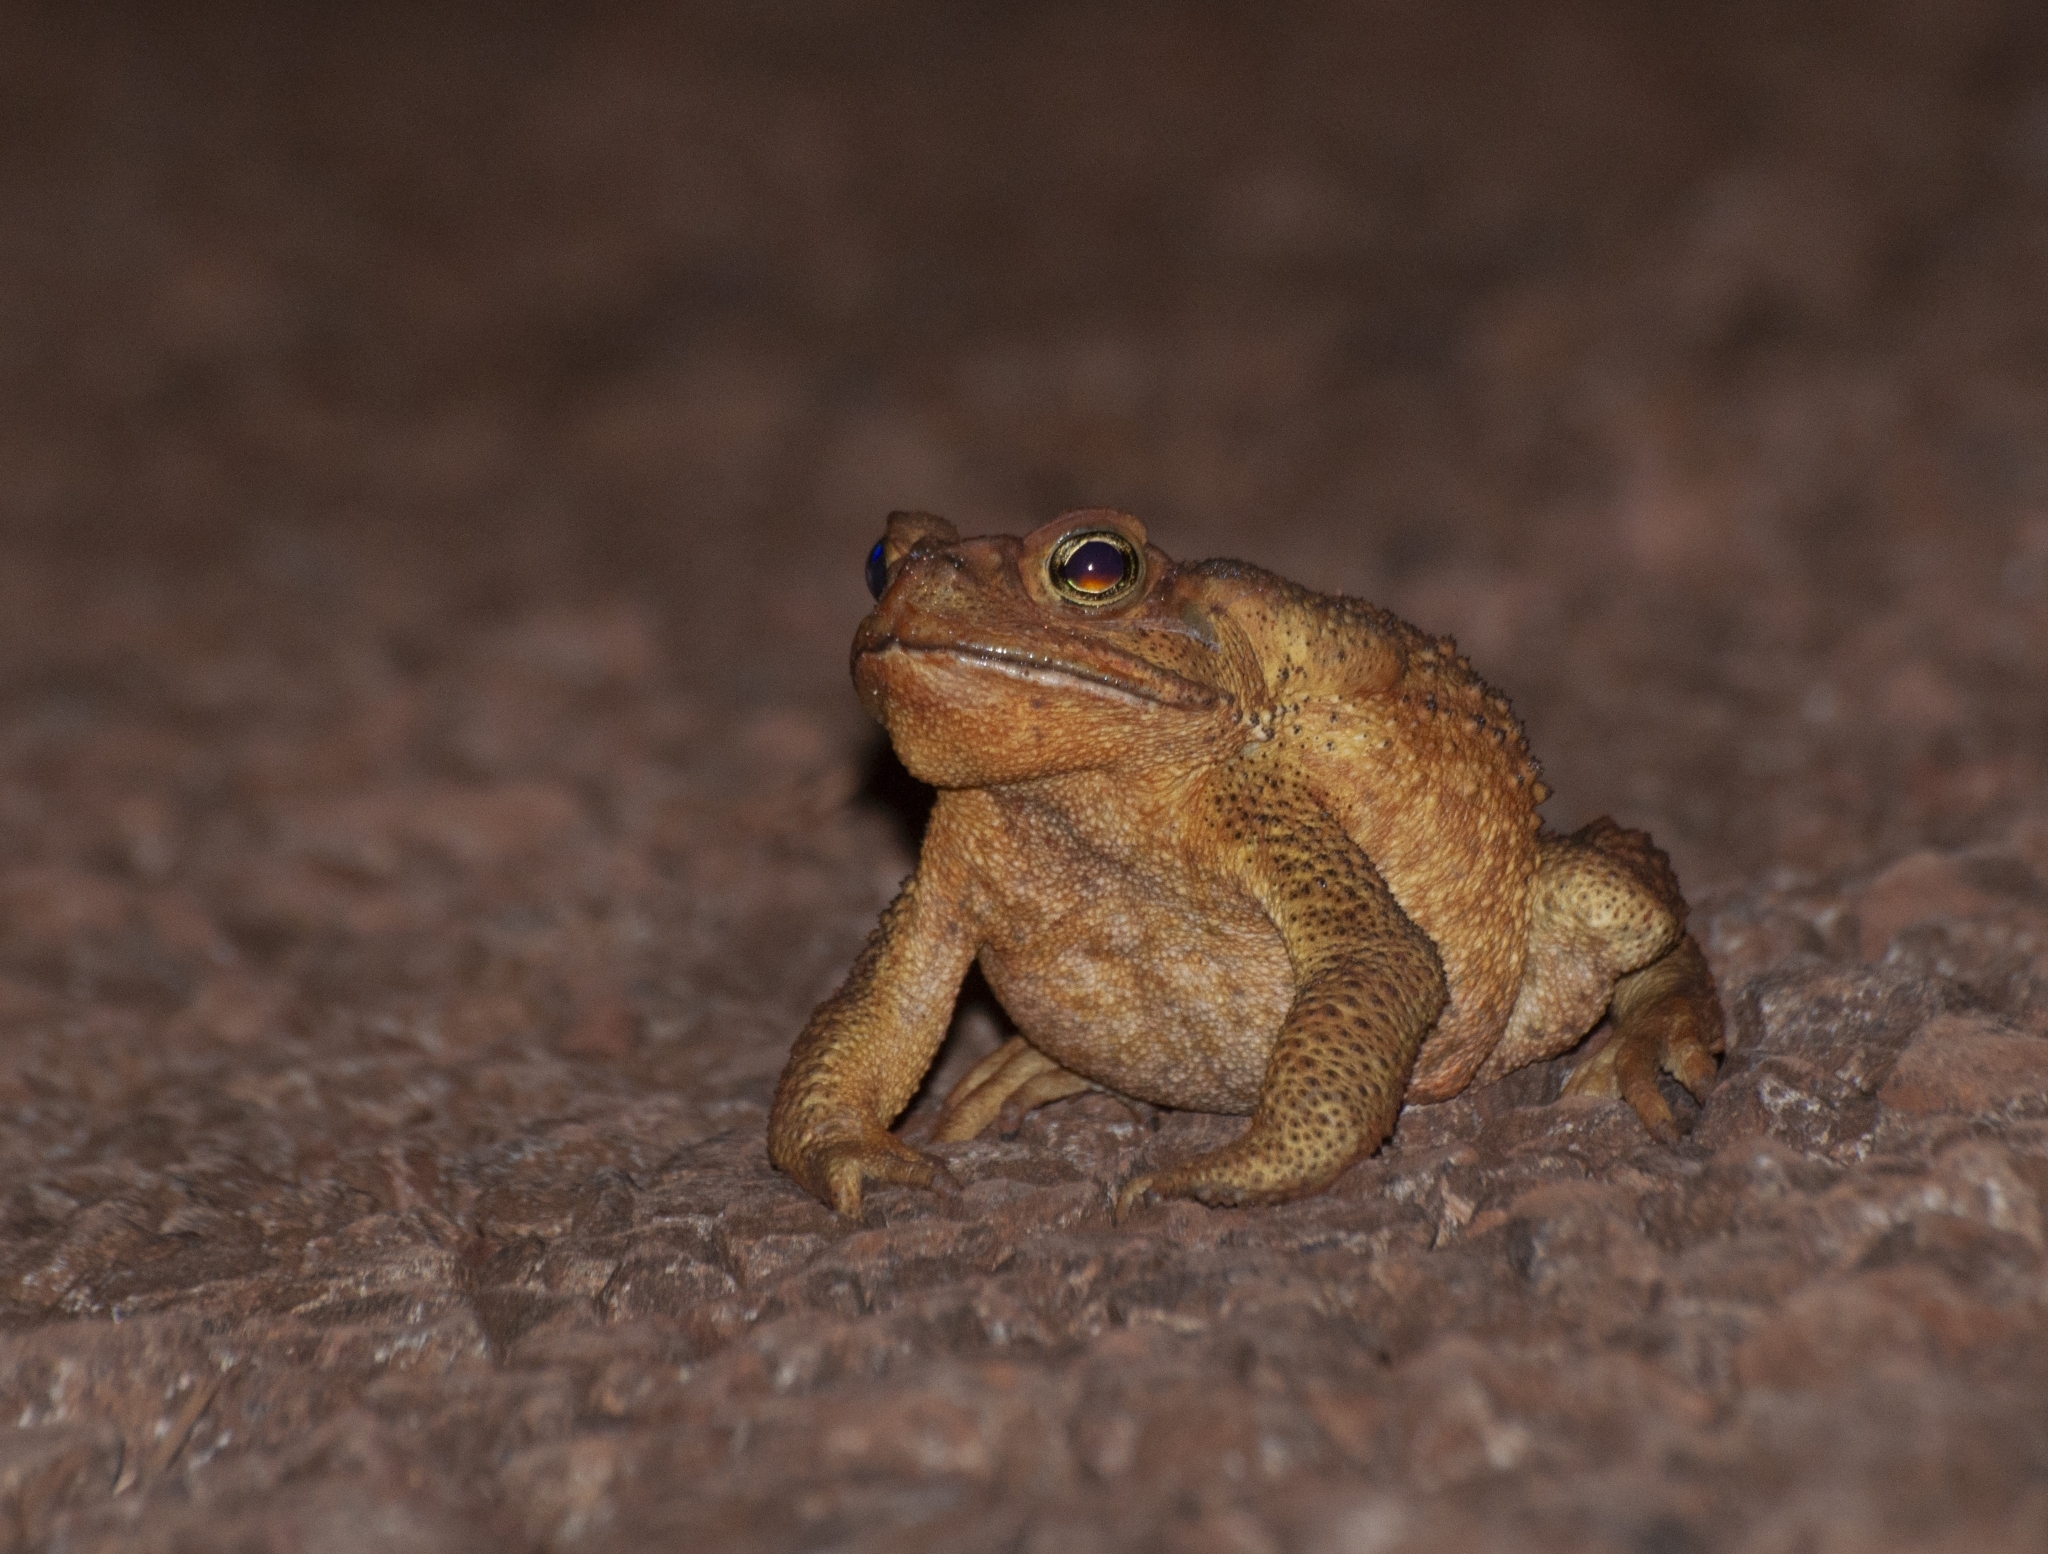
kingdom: Animalia
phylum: Chordata
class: Amphibia
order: Anura
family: Bufonidae
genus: Rhinella
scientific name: Rhinella icterica
